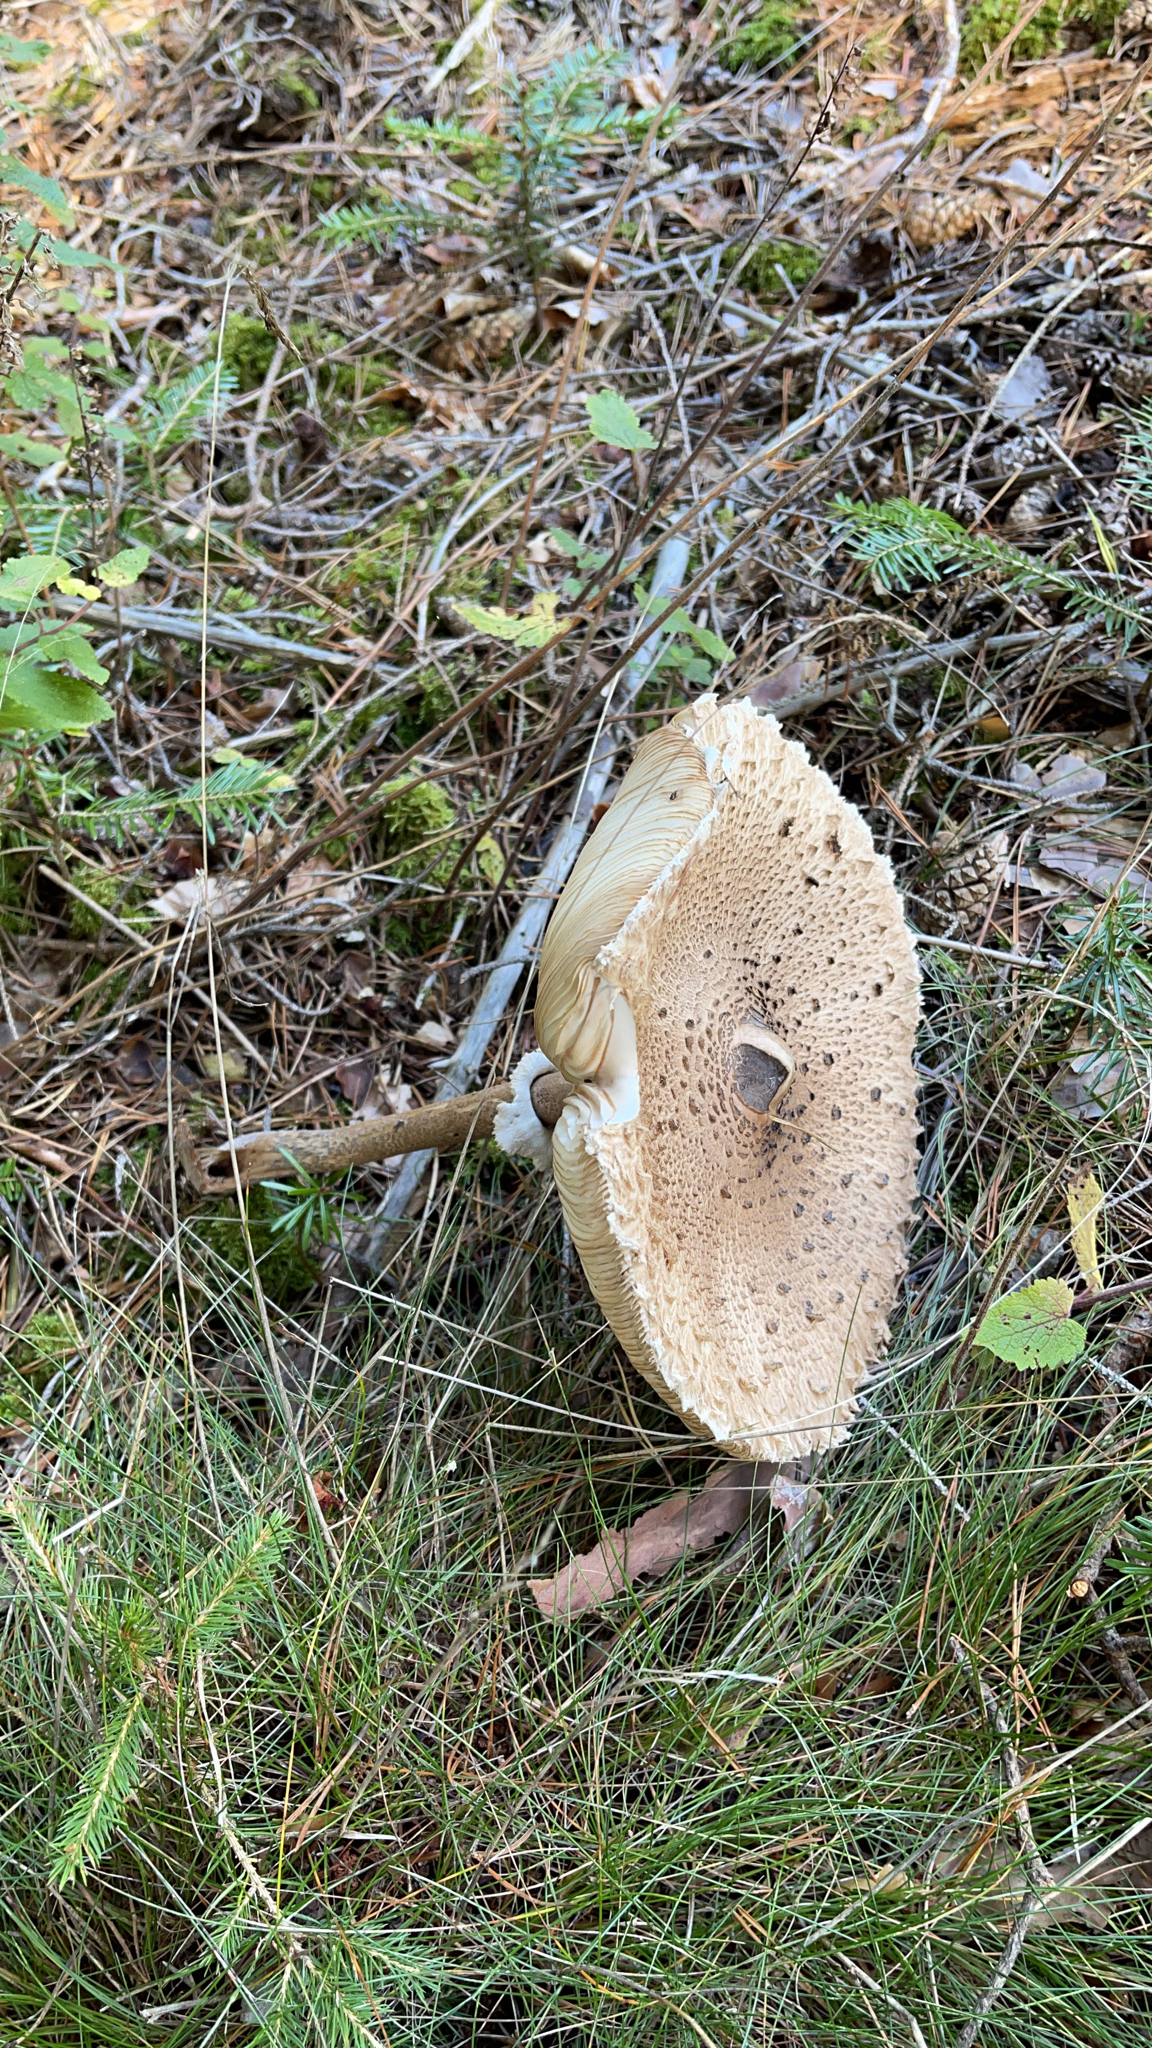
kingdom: Fungi
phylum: Basidiomycota
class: Agaricomycetes
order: Agaricales
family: Agaricaceae
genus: Macrolepiota
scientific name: Macrolepiota procera
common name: Parasol
